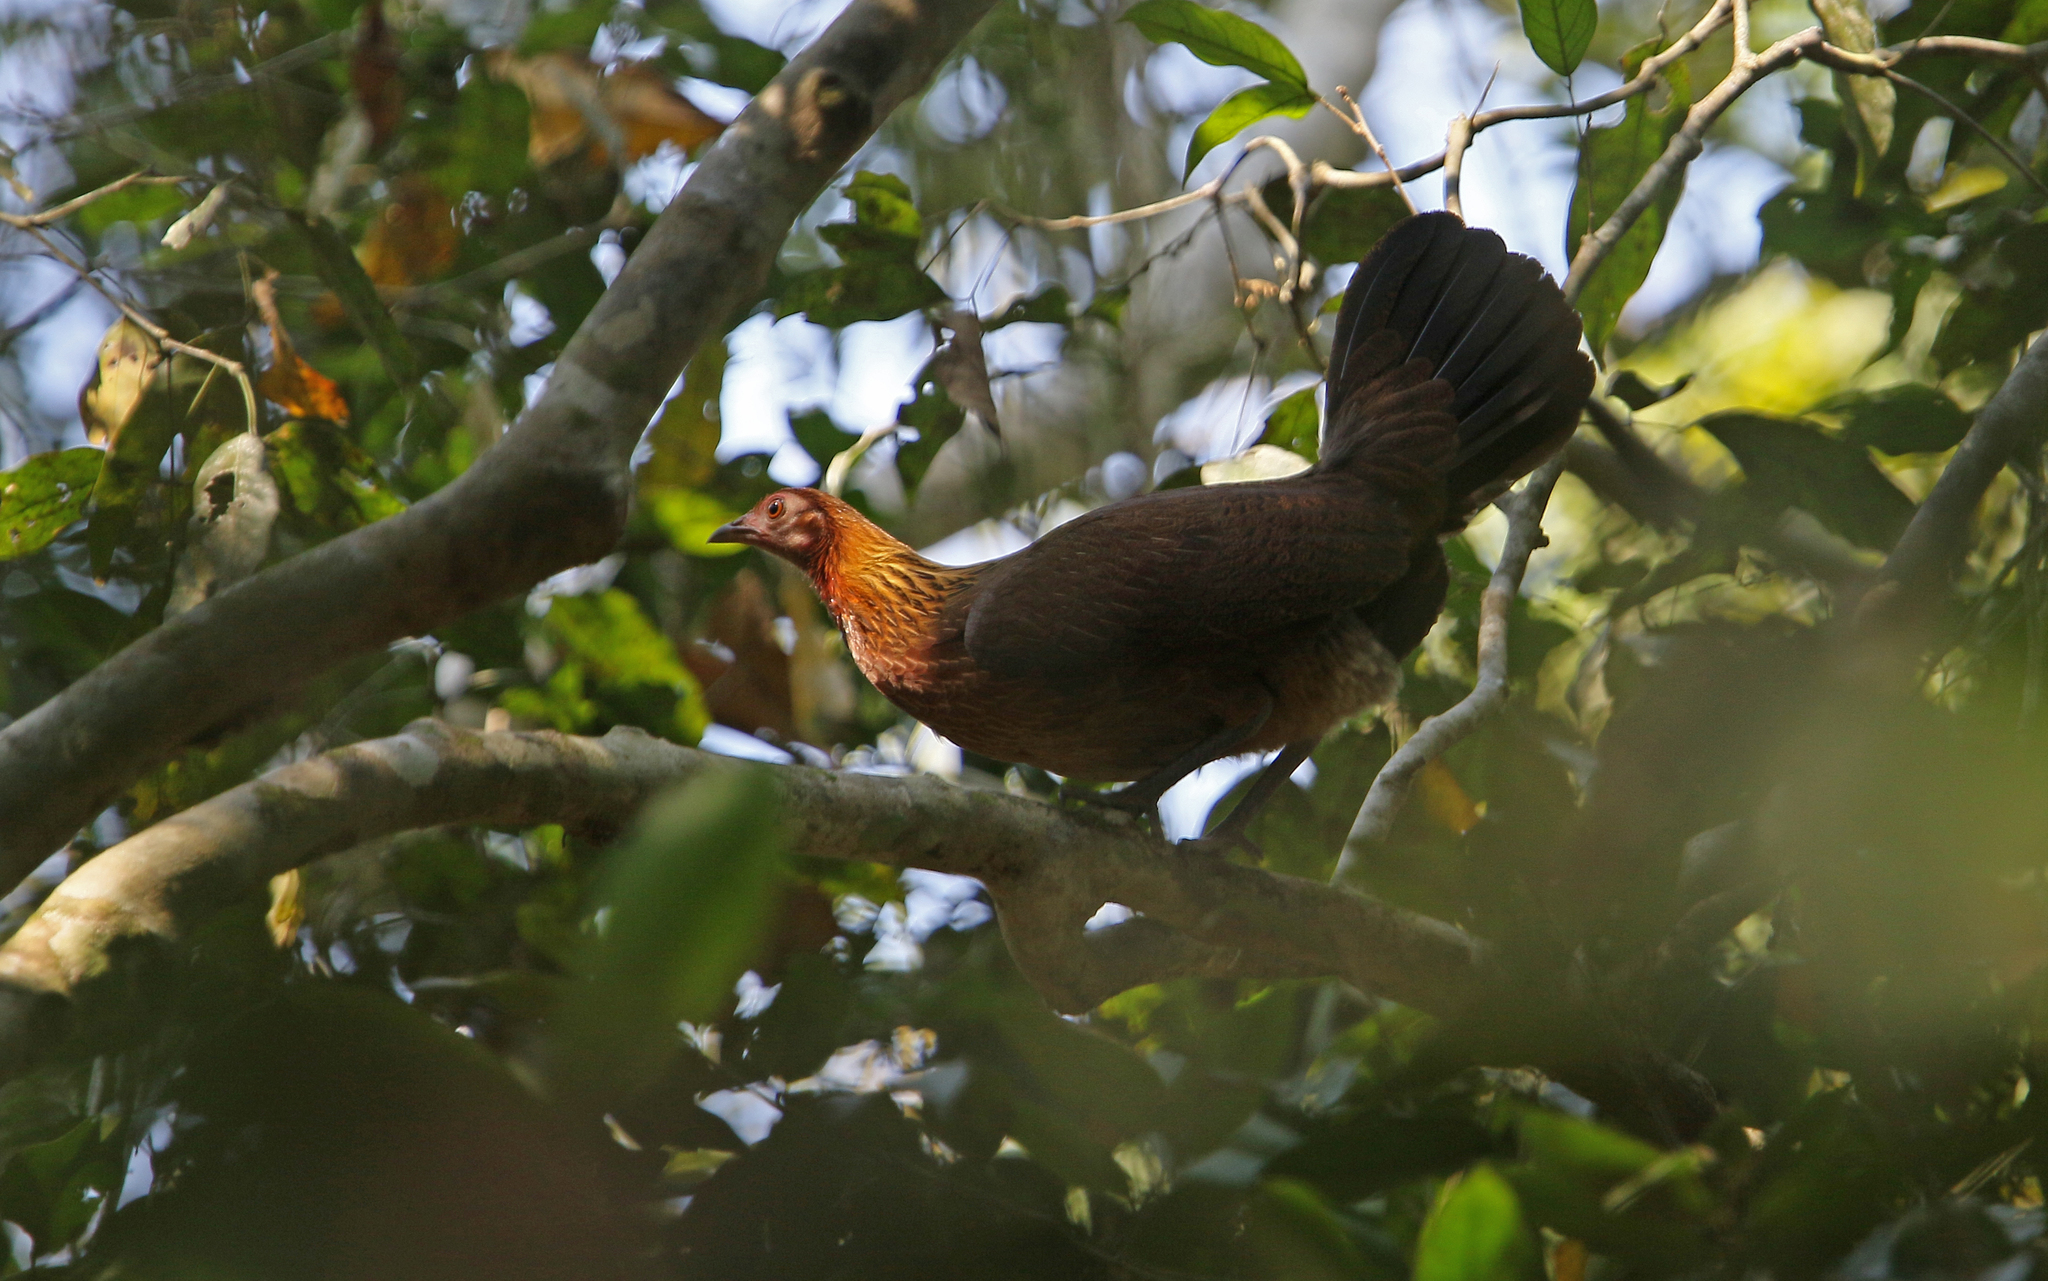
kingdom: Animalia
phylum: Chordata
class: Aves
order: Galliformes
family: Phasianidae
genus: Gallus
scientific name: Gallus gallus
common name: Red junglefowl
